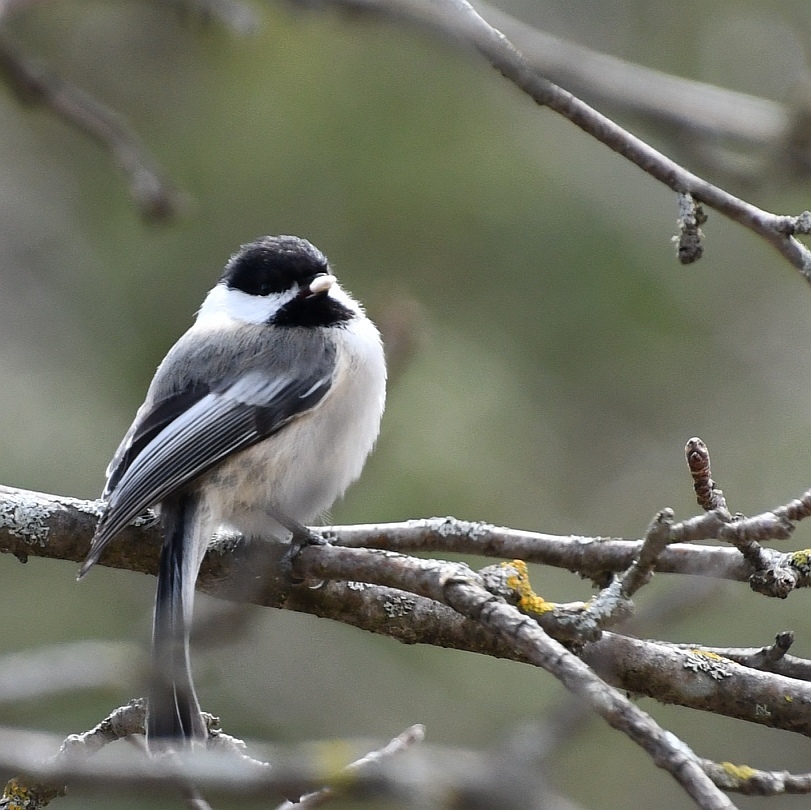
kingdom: Animalia
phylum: Chordata
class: Aves
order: Passeriformes
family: Paridae
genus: Poecile
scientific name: Poecile atricapillus
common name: Black-capped chickadee
